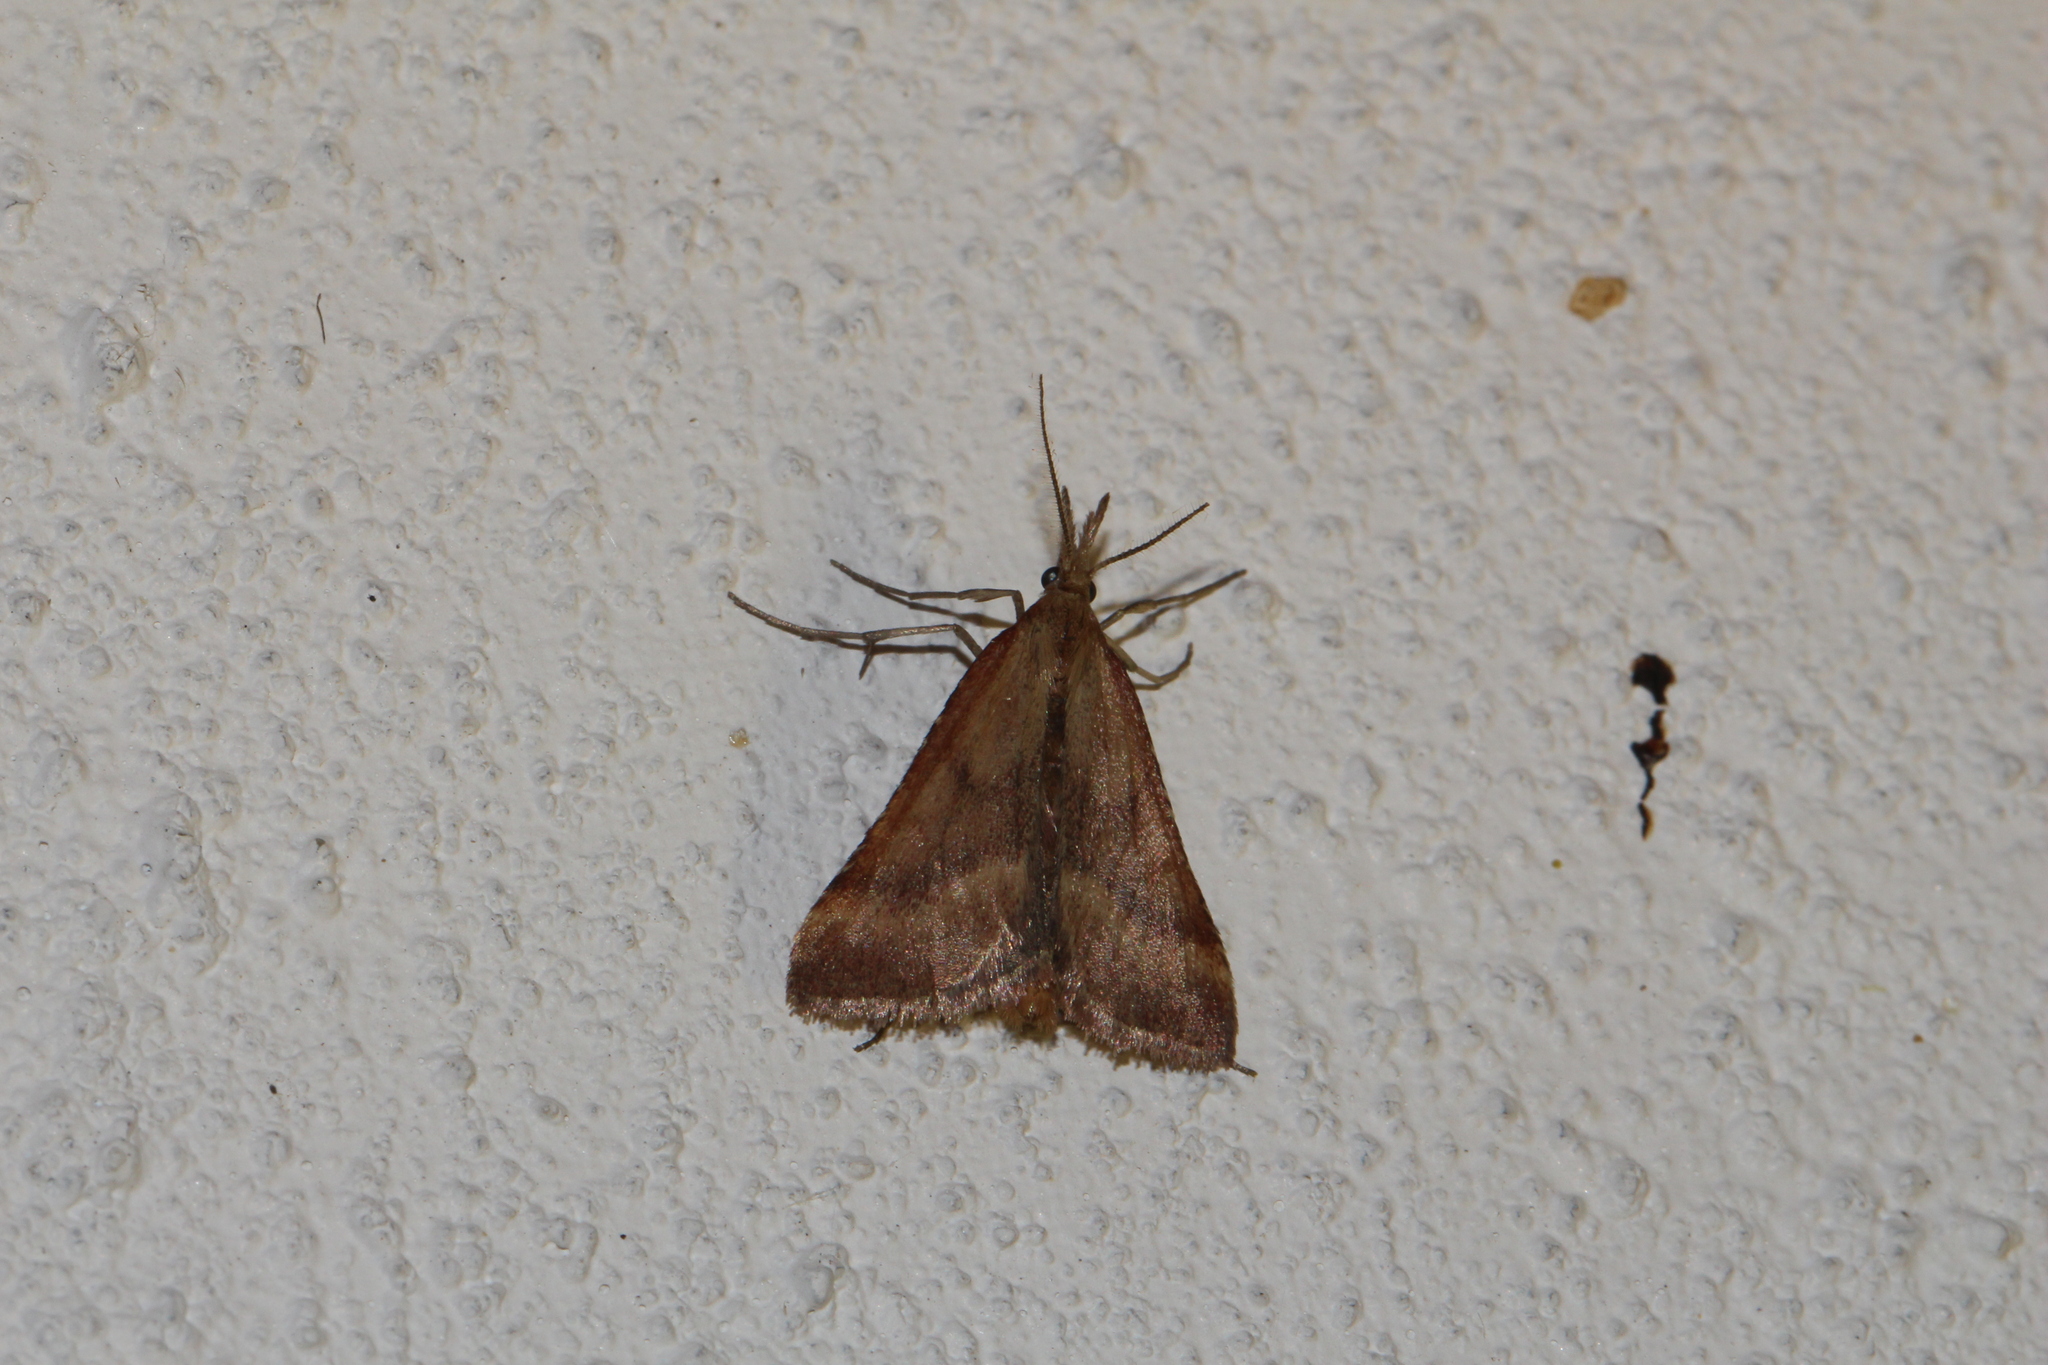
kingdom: Animalia
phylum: Arthropoda
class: Insecta
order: Lepidoptera
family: Pyralidae
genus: Synaphe
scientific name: Synaphe punctalis
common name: Long-legged tabby
